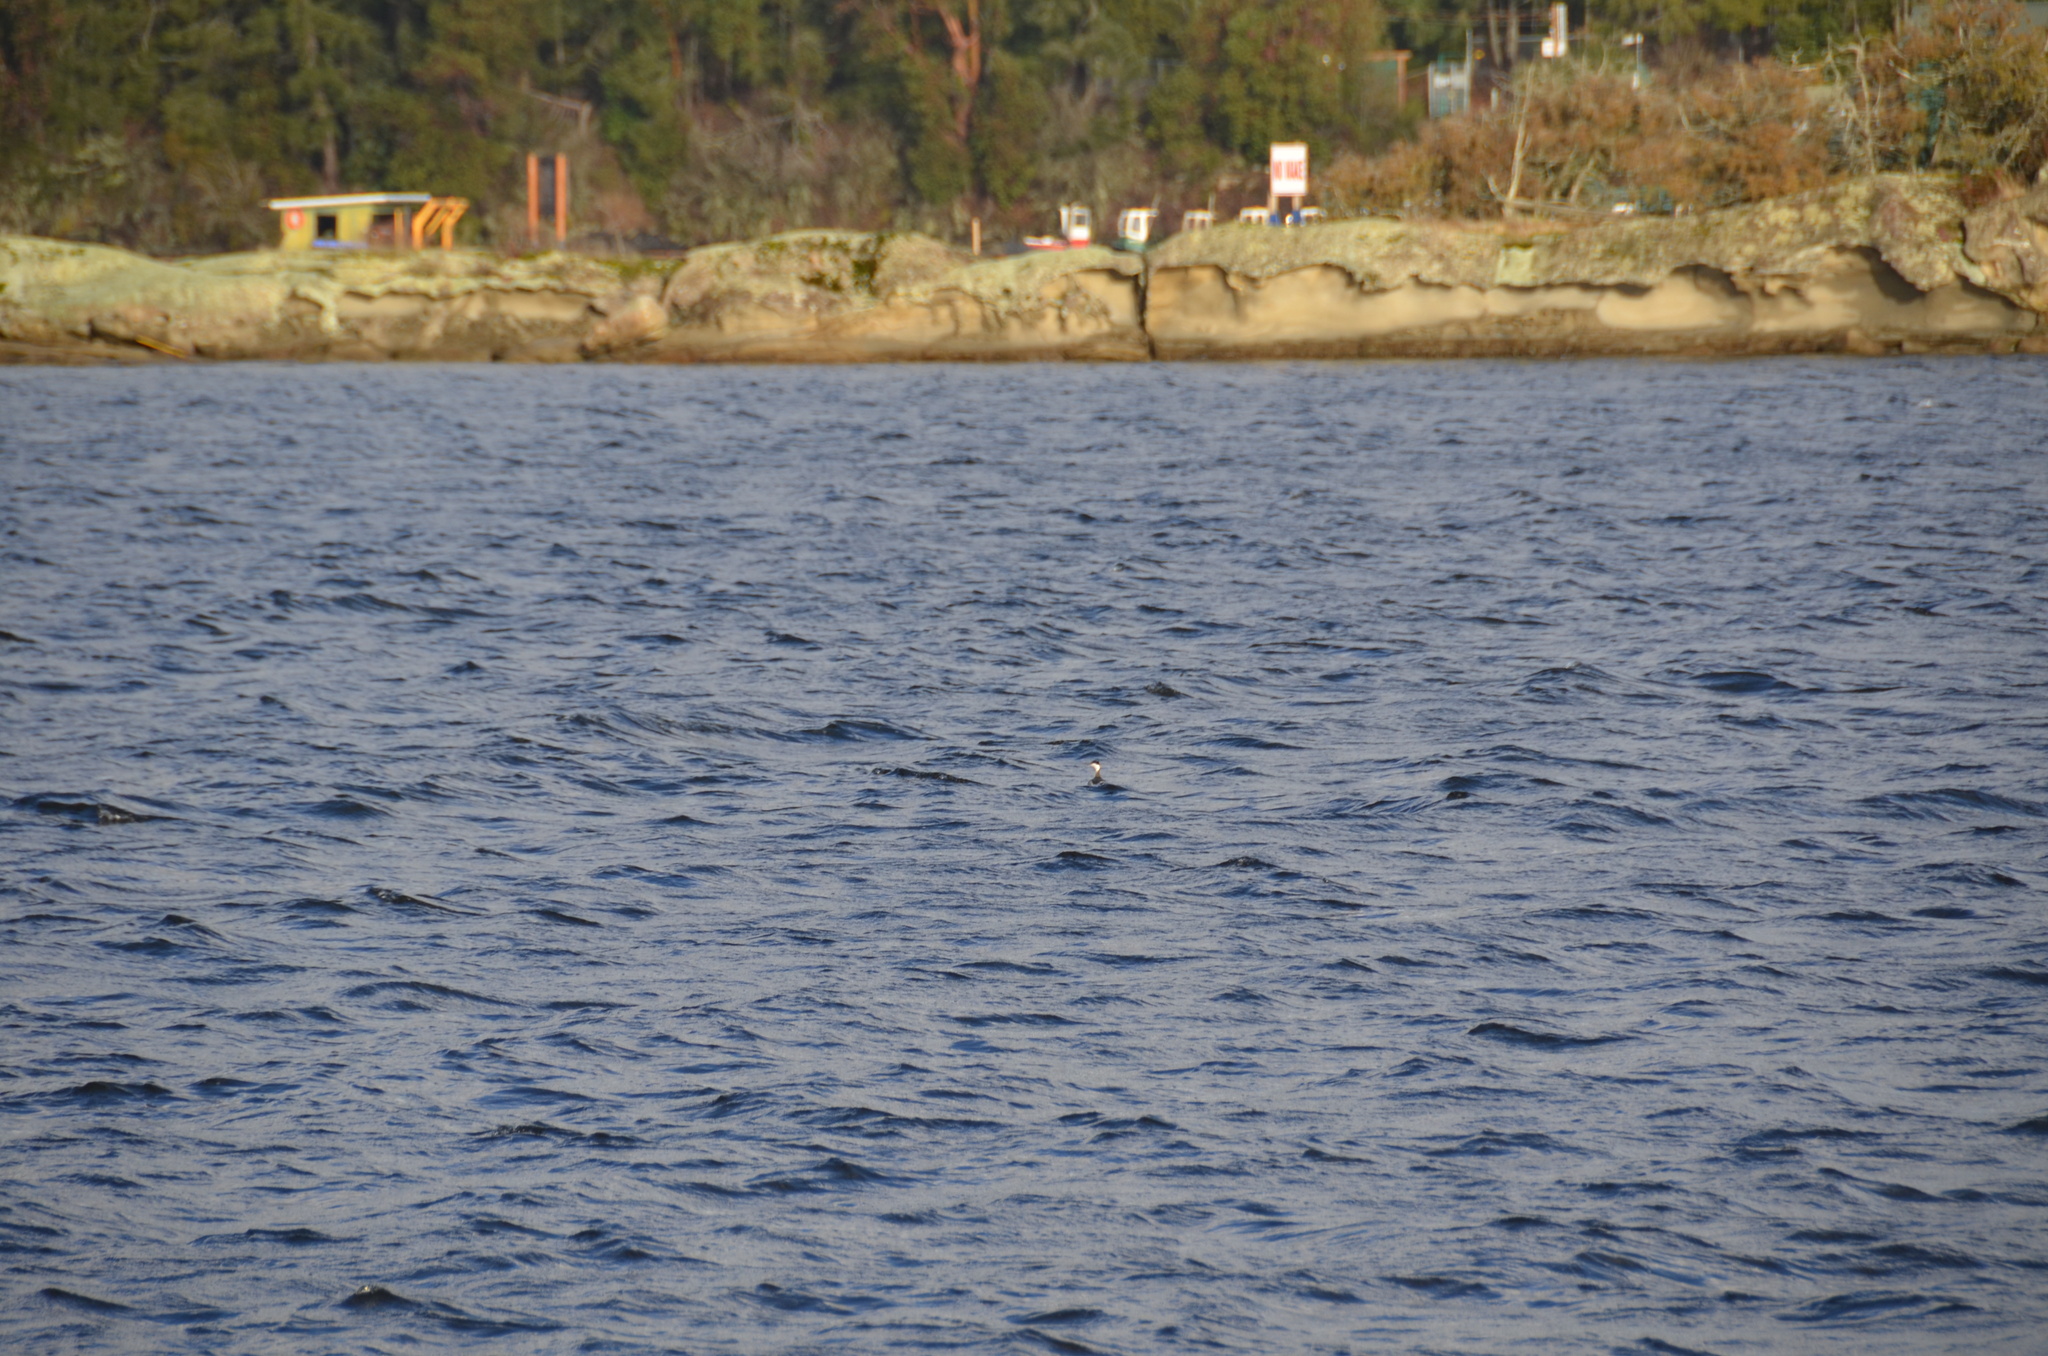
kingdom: Animalia
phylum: Chordata
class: Aves
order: Podicipediformes
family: Podicipedidae
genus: Podiceps
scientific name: Podiceps auritus
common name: Horned grebe
